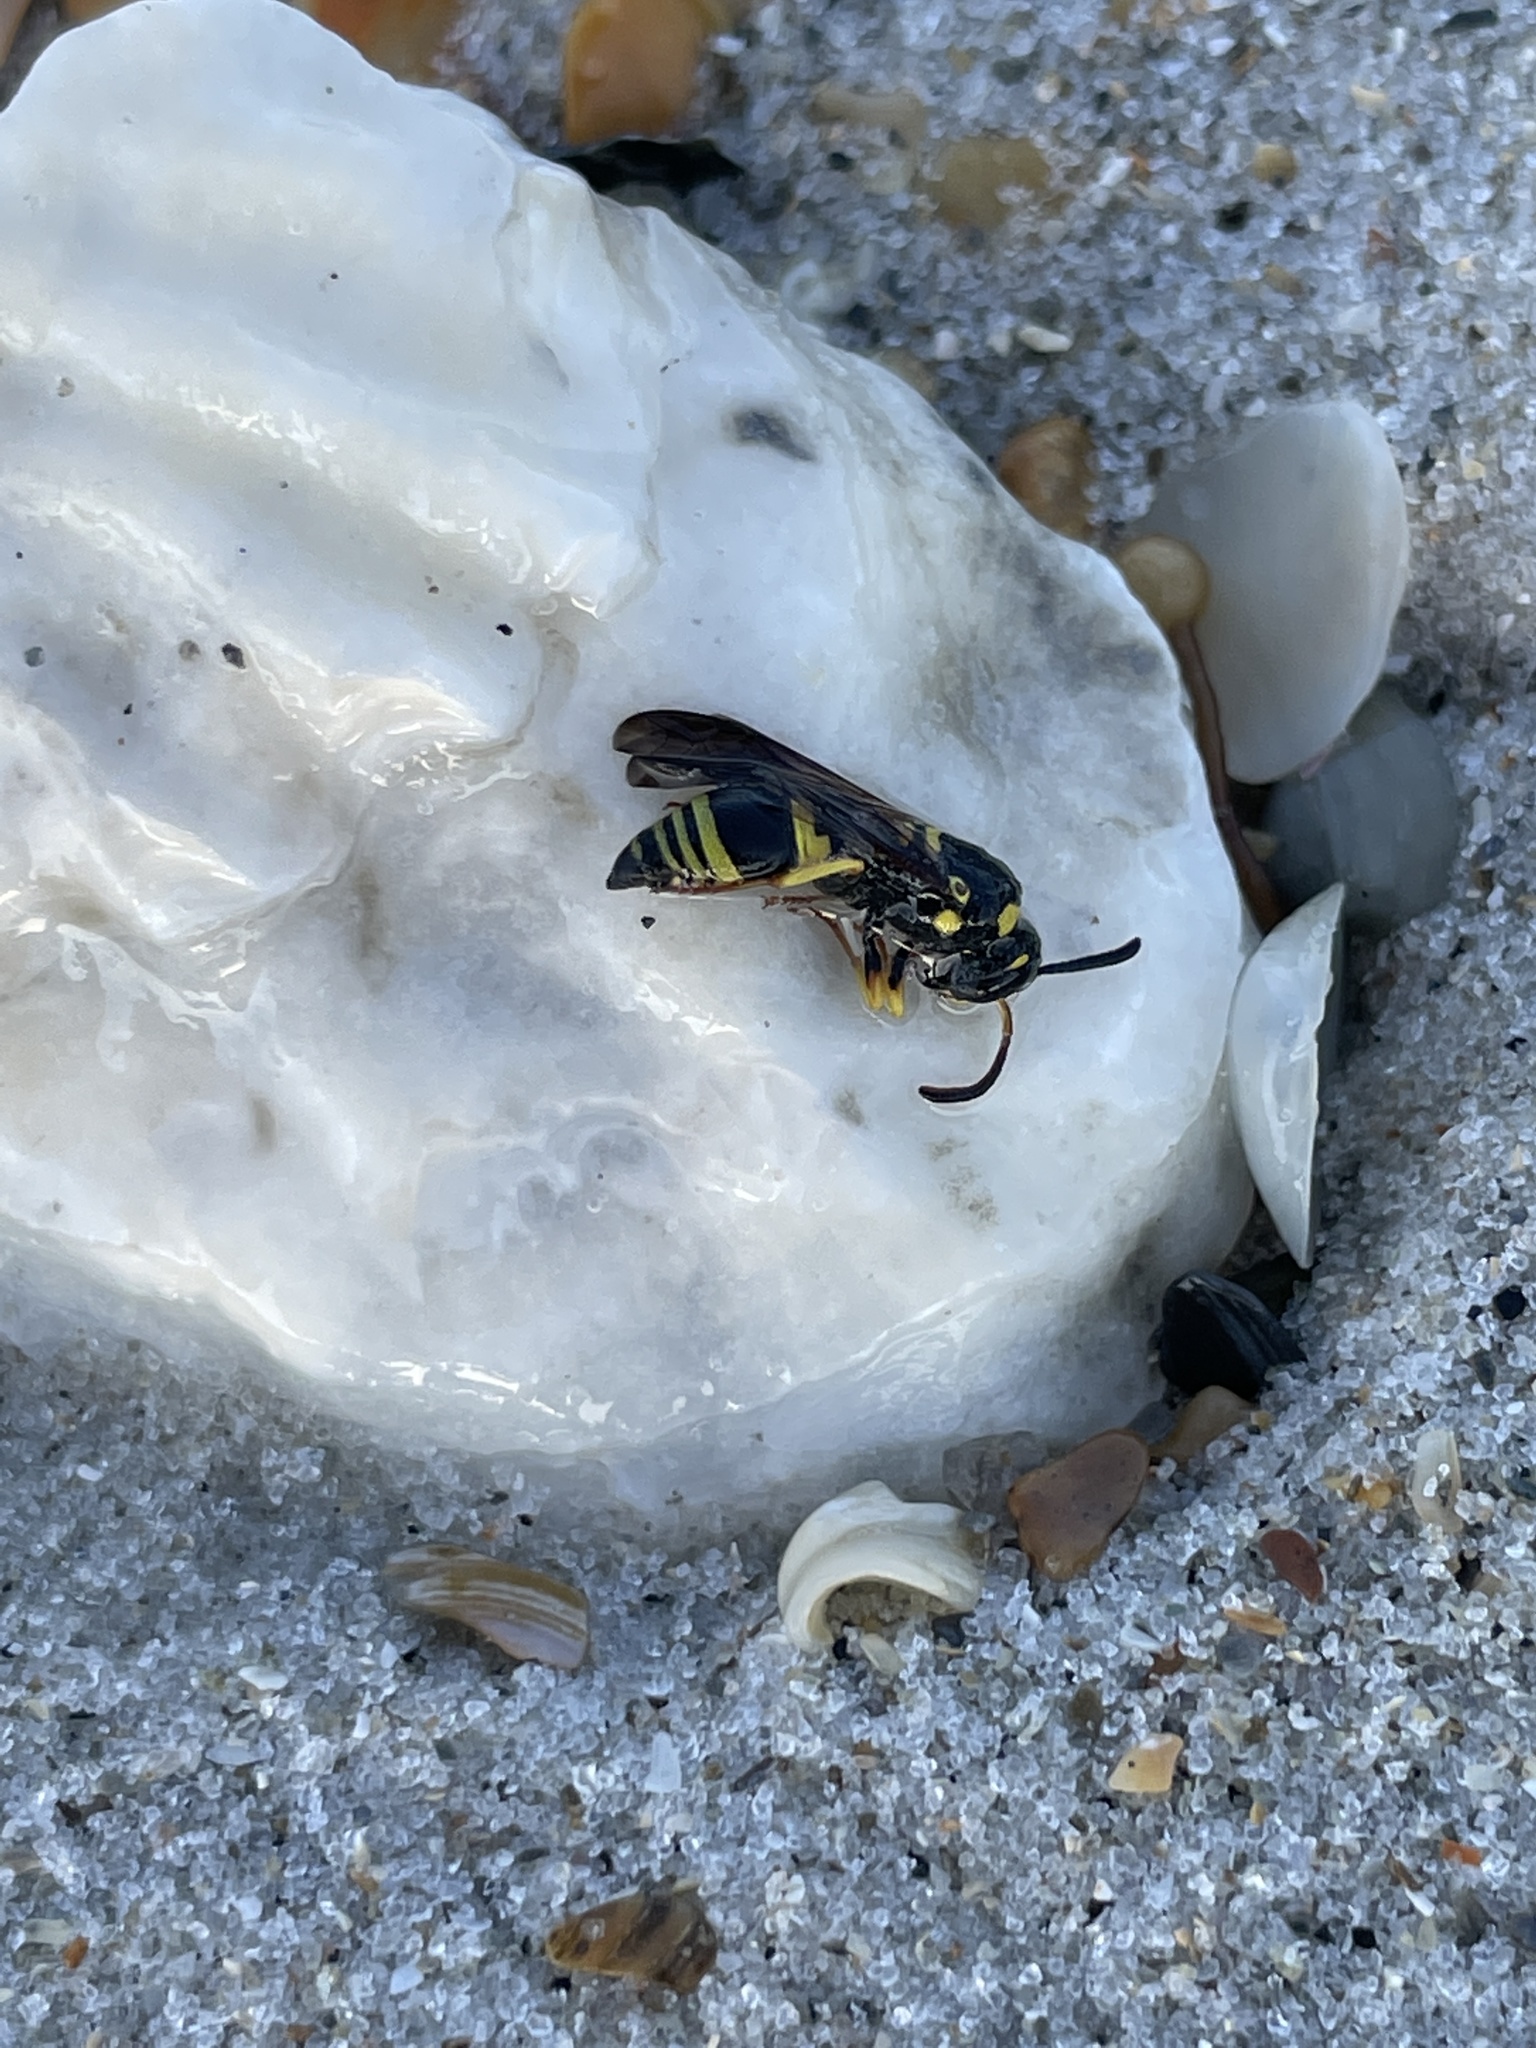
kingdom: Animalia
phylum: Arthropoda
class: Insecta
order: Hymenoptera
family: Vespidae
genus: Ancistrocerus
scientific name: Ancistrocerus adiabatus
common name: Bramble mason wasp
